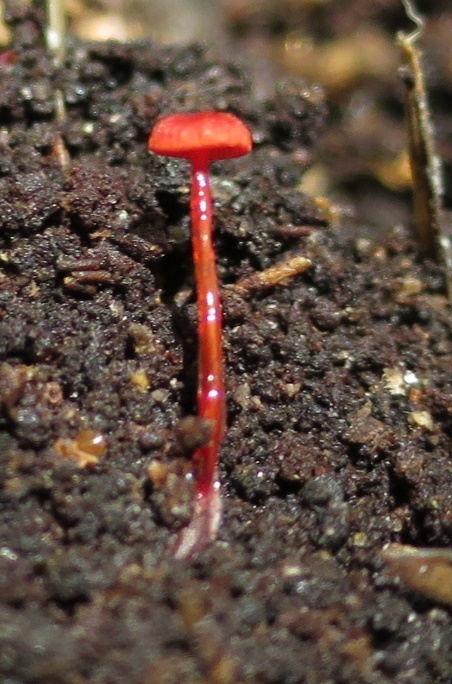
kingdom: Fungi
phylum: Basidiomycota
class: Agaricomycetes
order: Agaricales
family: Mycenaceae
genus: Cruentomycena
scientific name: Cruentomycena viscidocruenta
